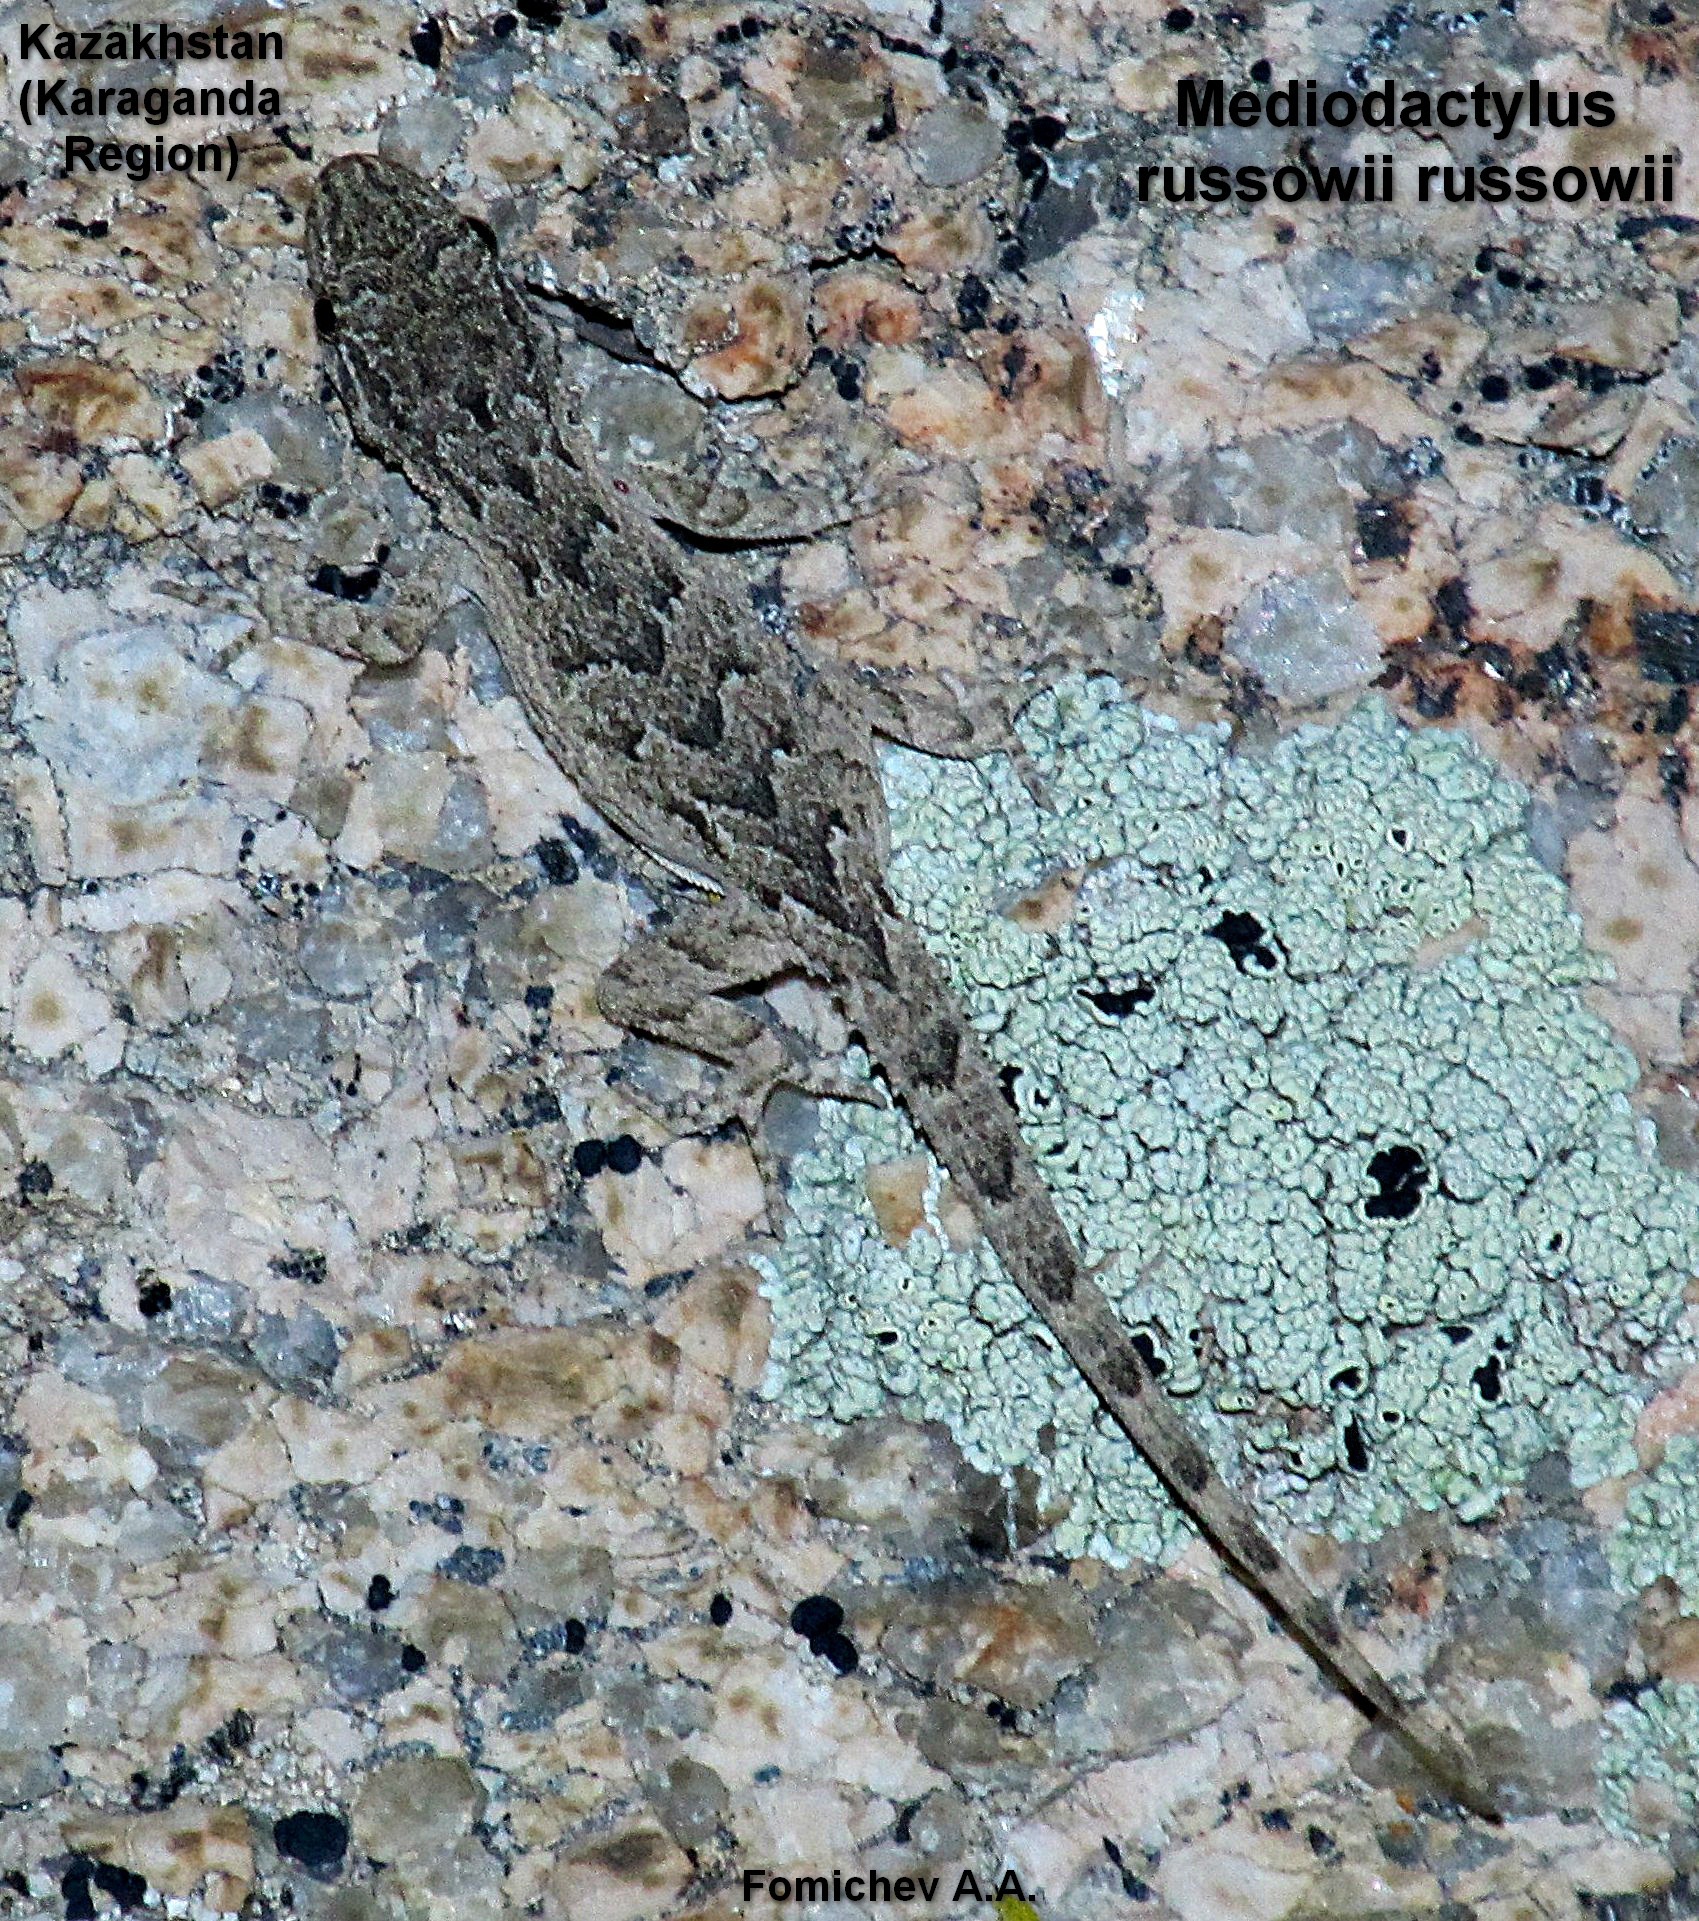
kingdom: Animalia
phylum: Chordata
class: Squamata
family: Gekkonidae
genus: Mediodactylus
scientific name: Mediodactylus russowii
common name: Grey thin-toed gecko
